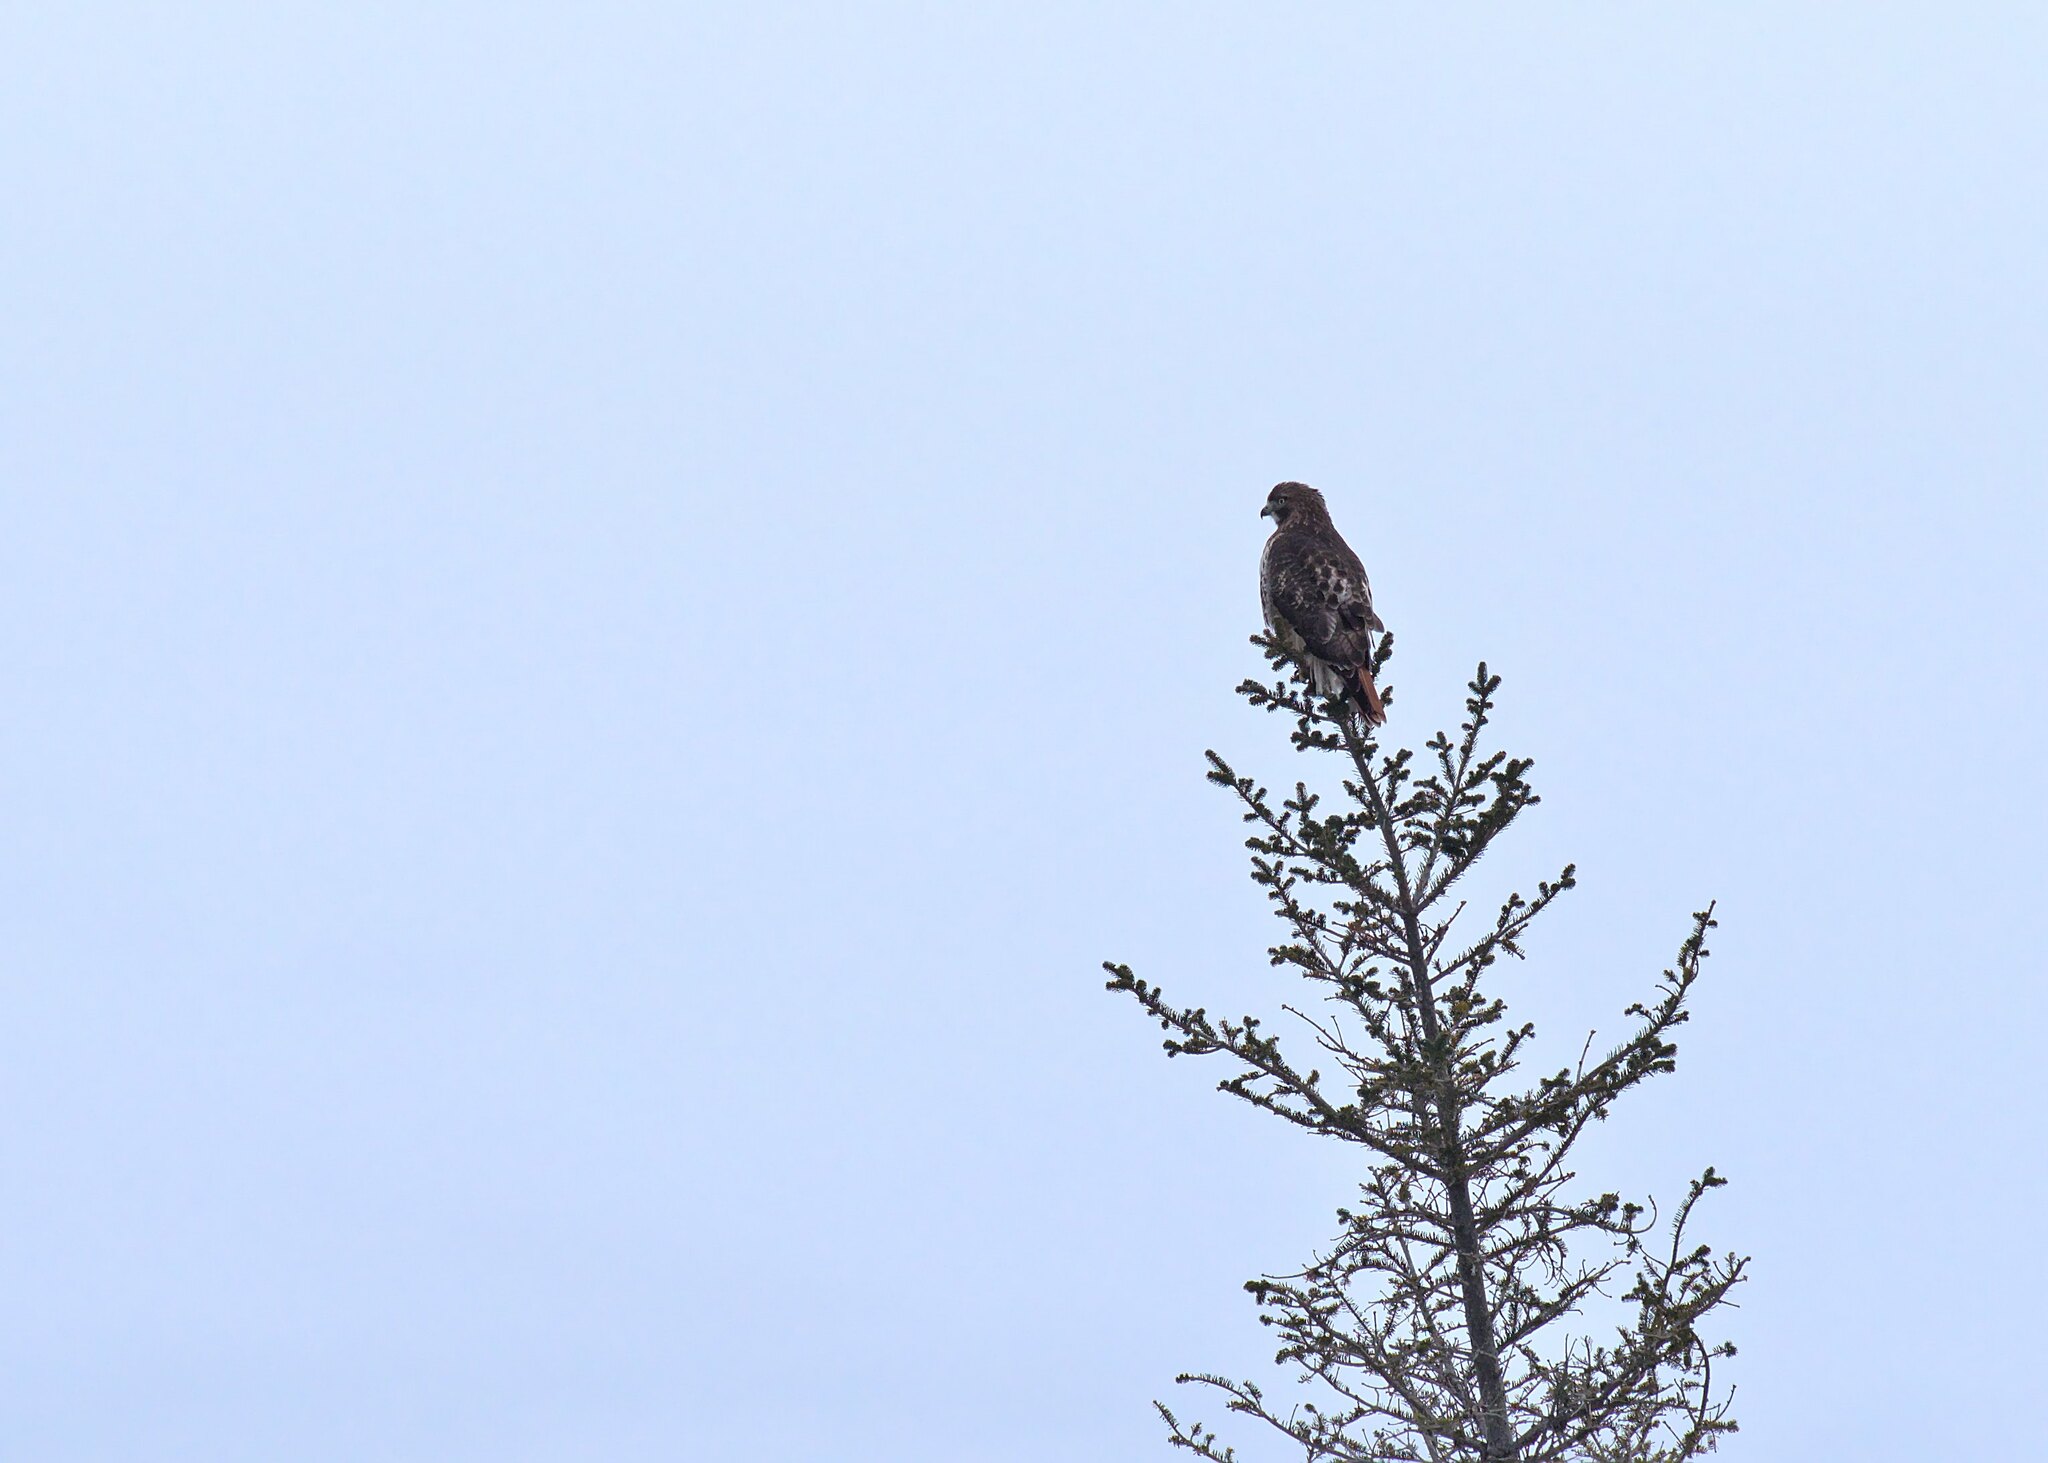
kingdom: Animalia
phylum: Chordata
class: Aves
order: Accipitriformes
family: Accipitridae
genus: Buteo
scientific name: Buteo jamaicensis
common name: Red-tailed hawk
